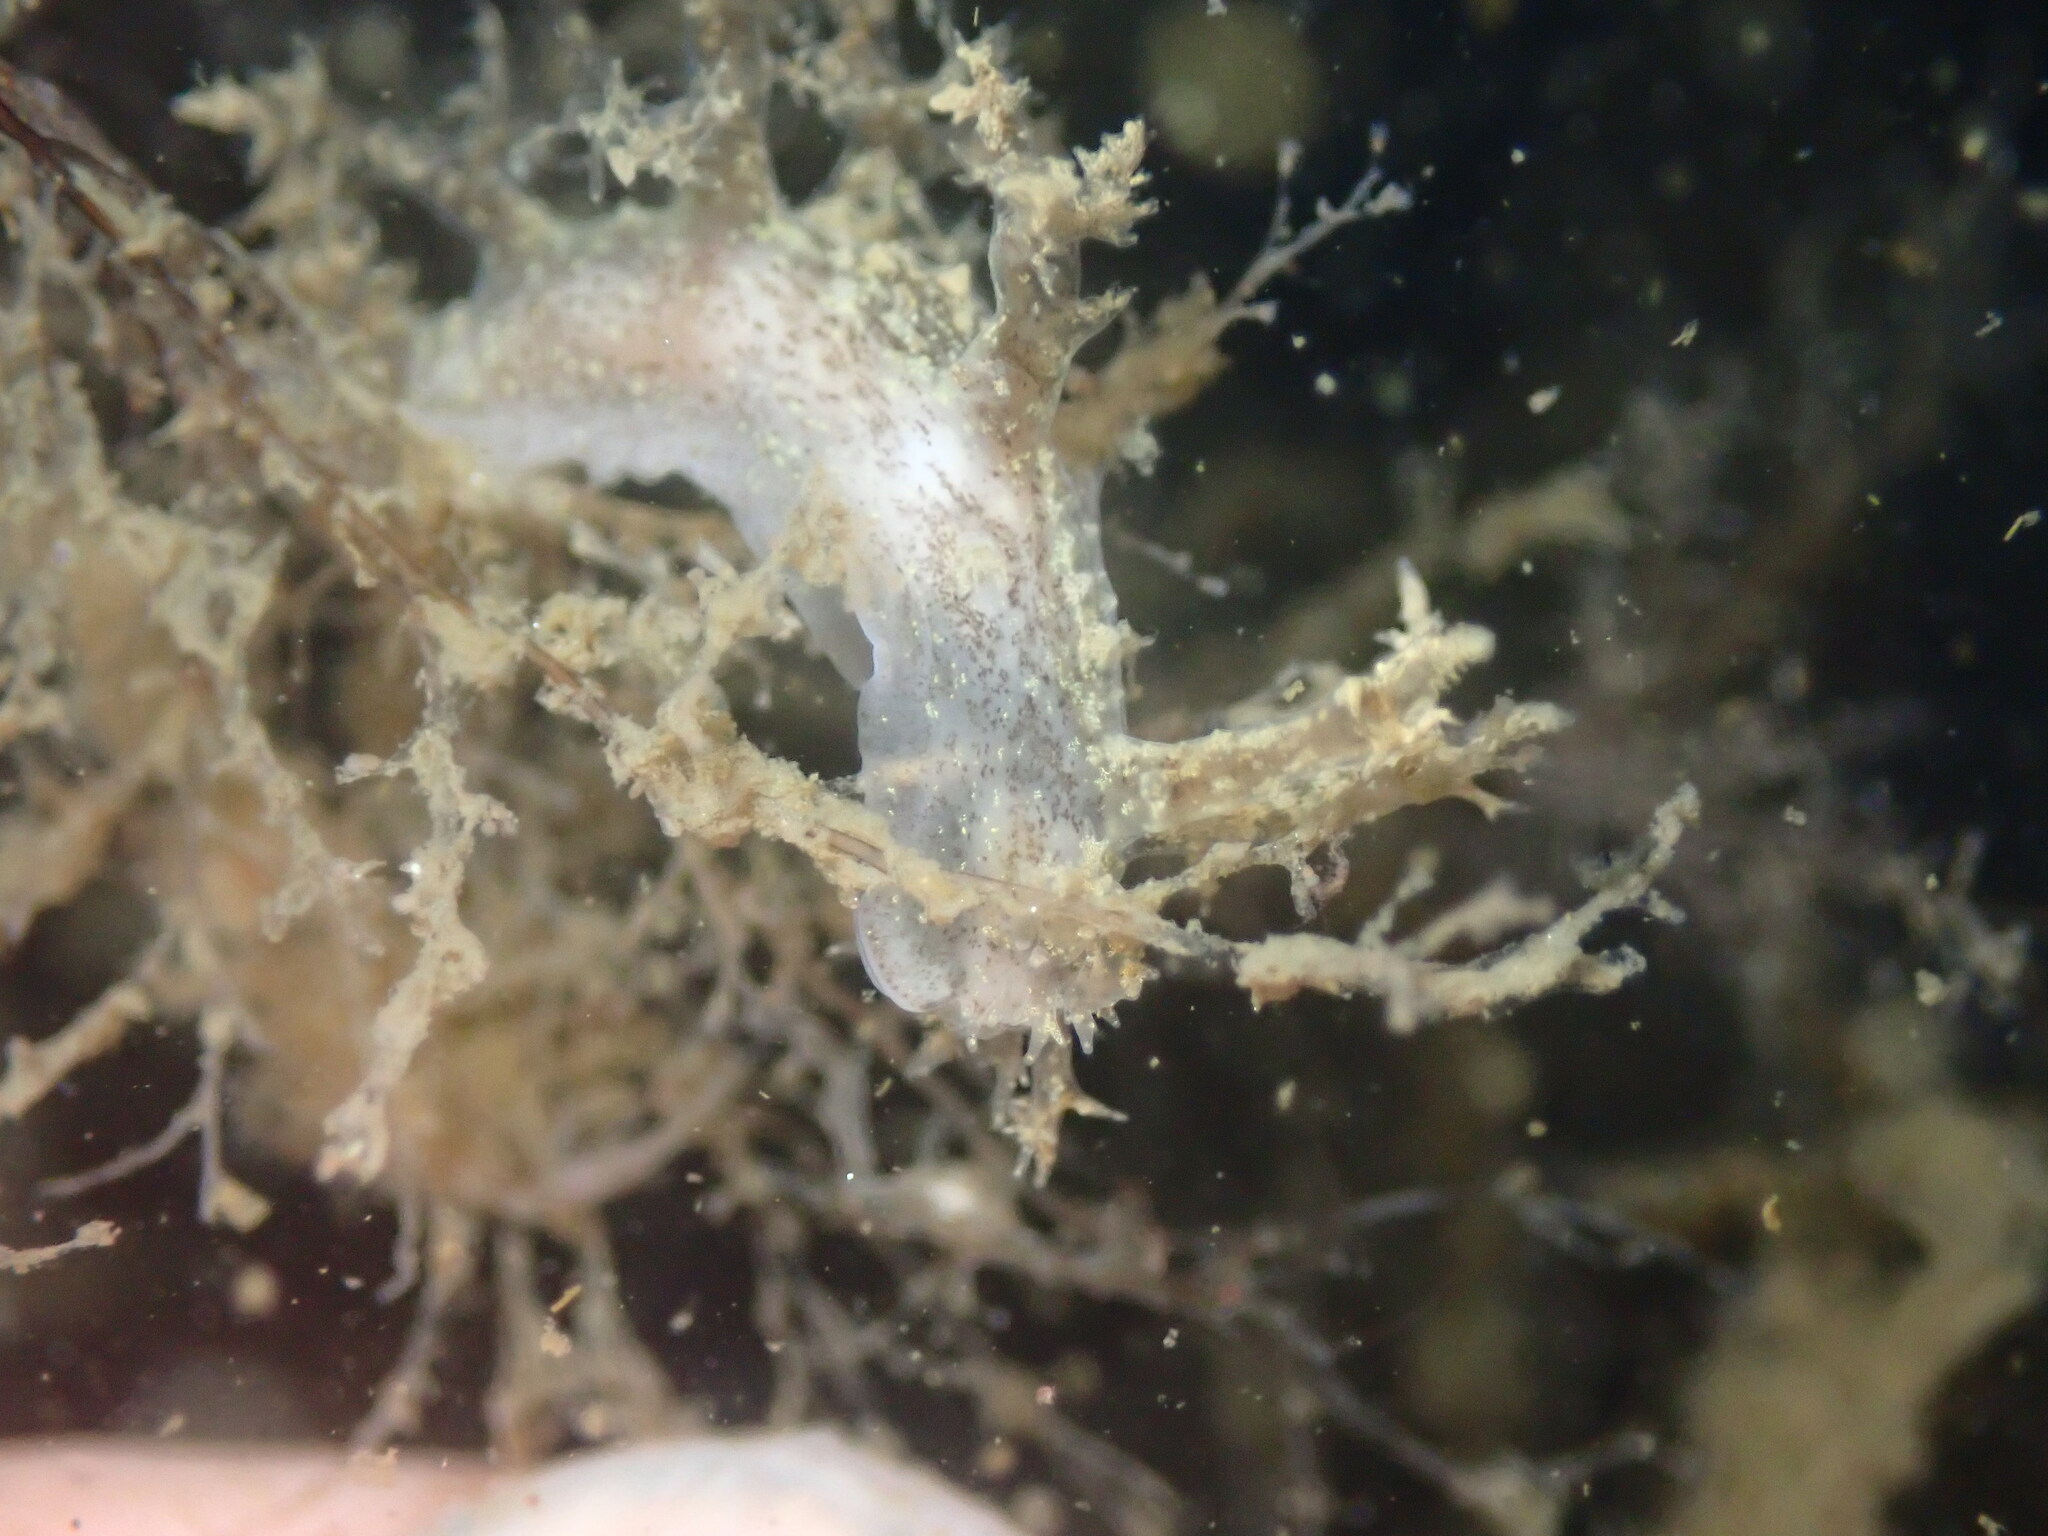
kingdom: Animalia
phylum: Mollusca
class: Gastropoda
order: Nudibranchia
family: Dendronotidae
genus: Dendronotus
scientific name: Dendronotus venustus
